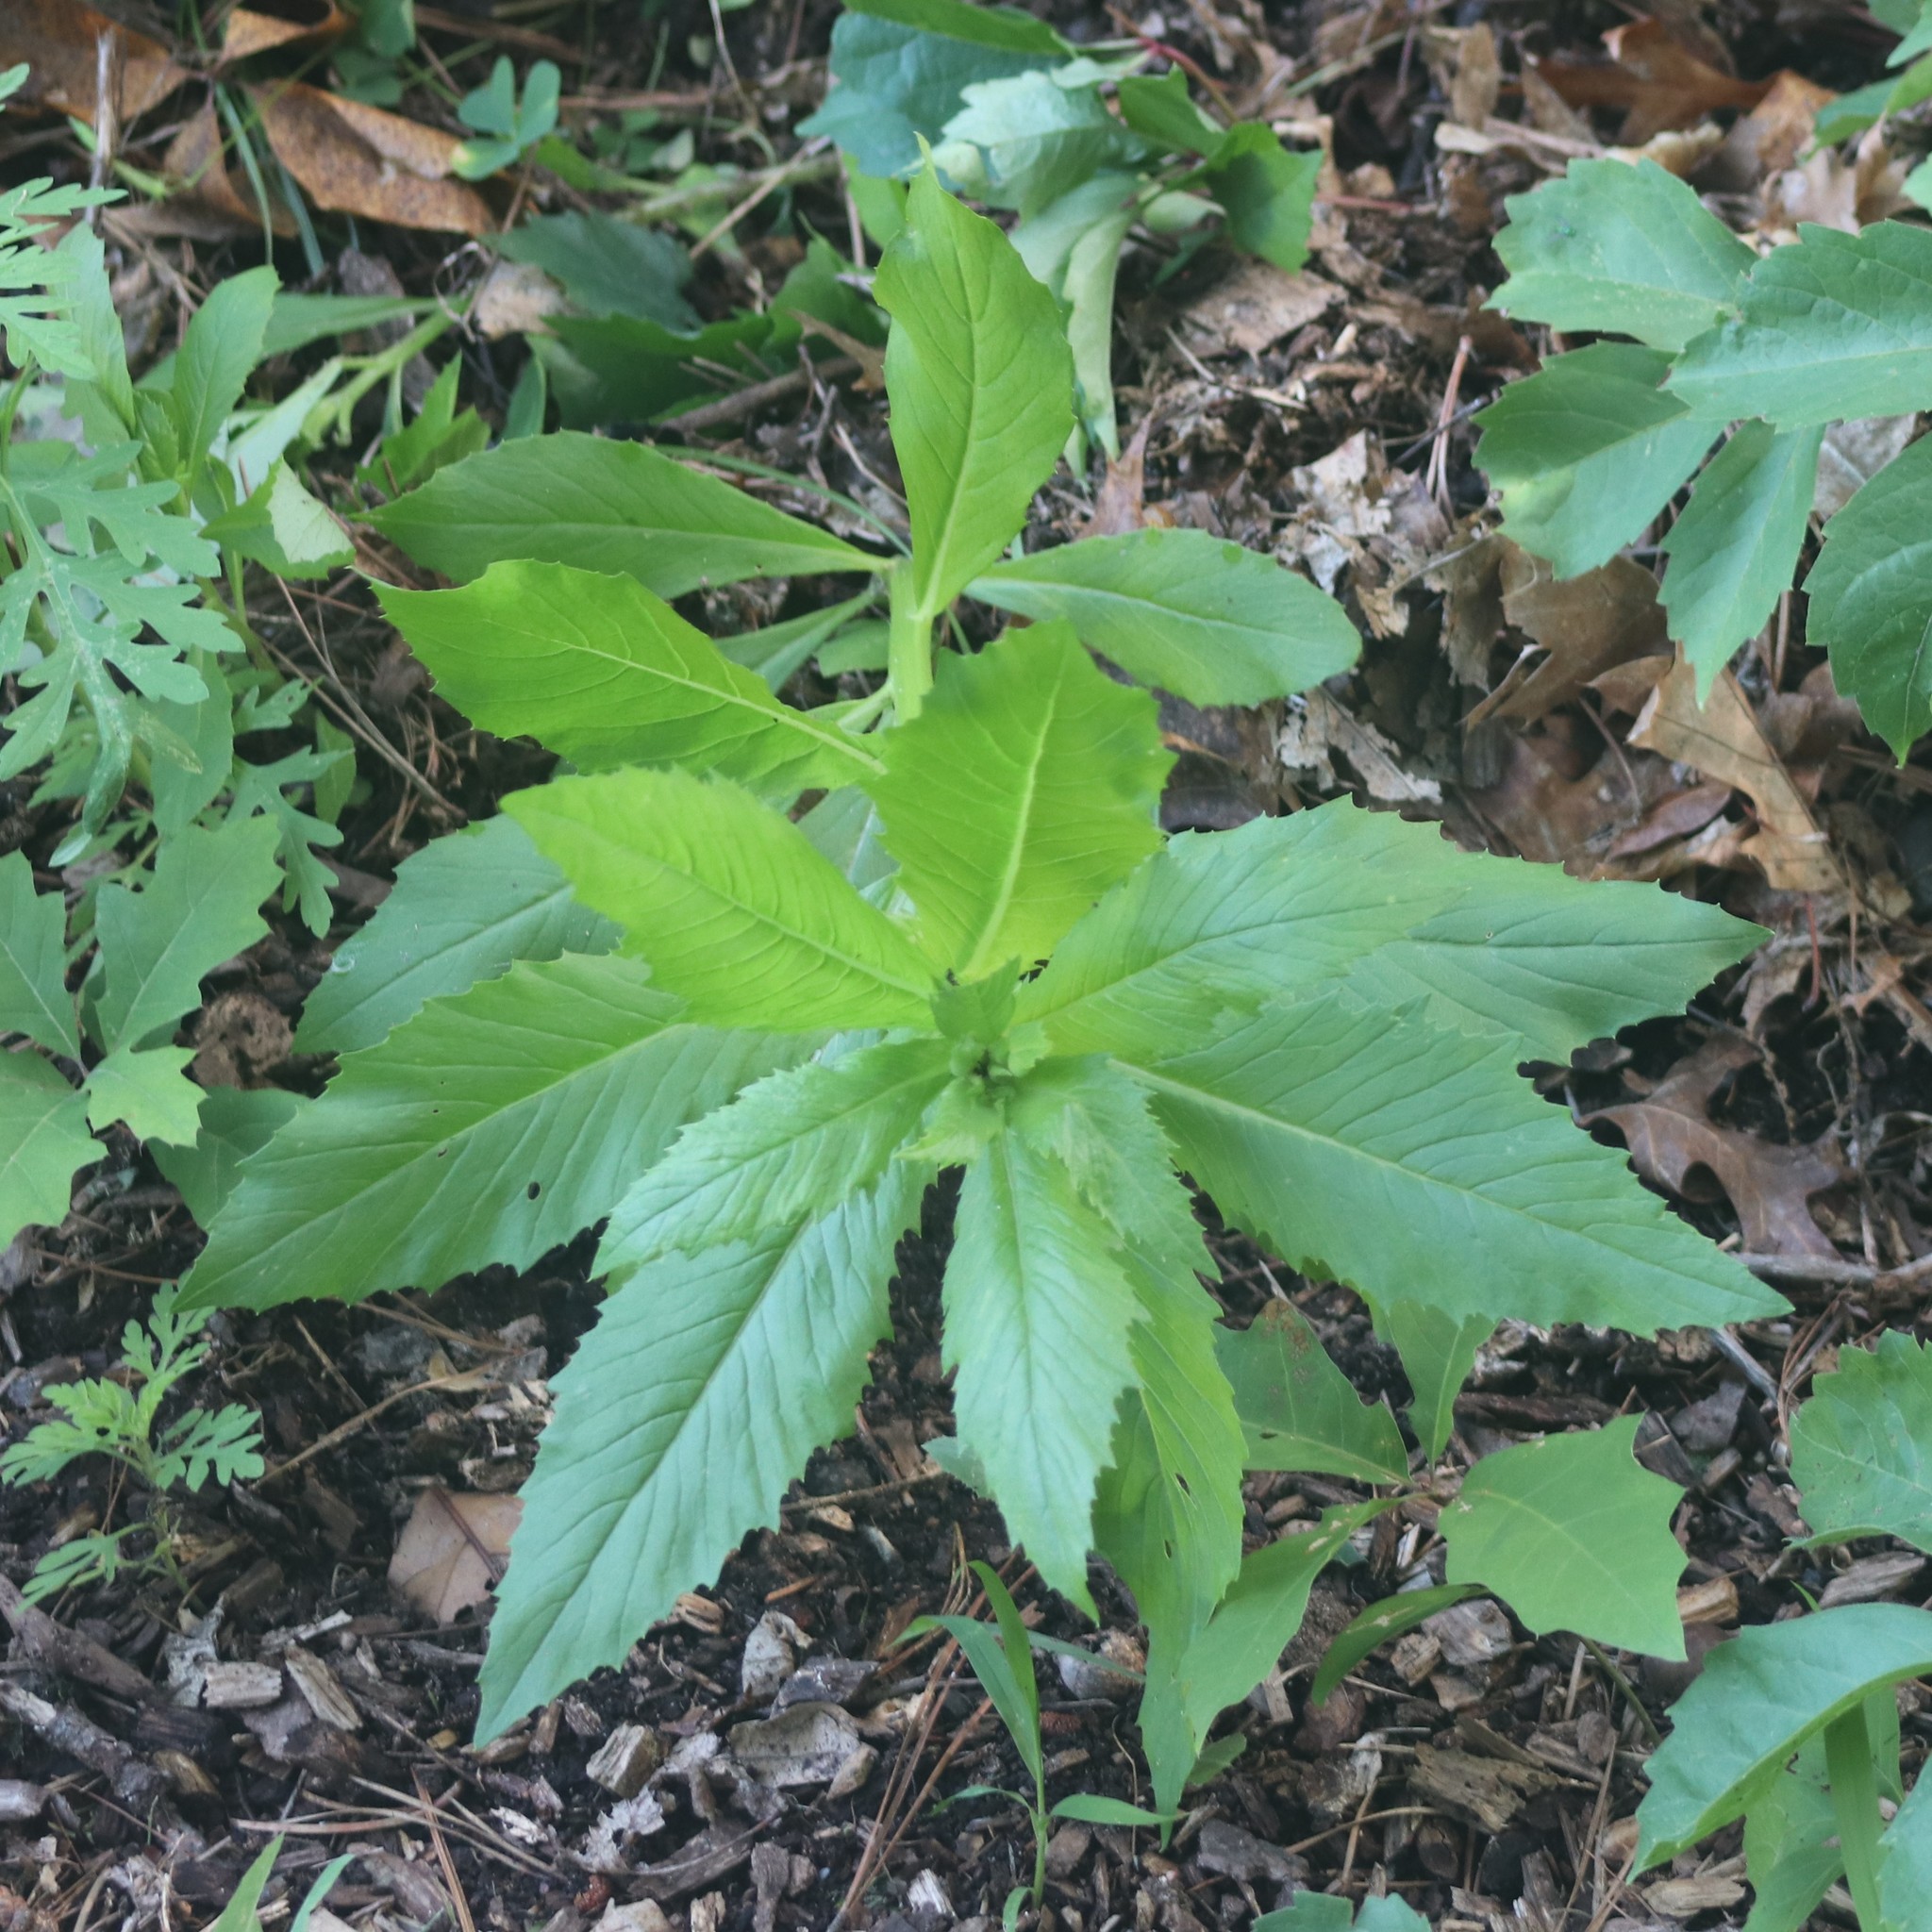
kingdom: Plantae
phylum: Tracheophyta
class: Magnoliopsida
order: Asterales
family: Asteraceae
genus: Erechtites
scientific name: Erechtites hieraciifolius
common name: American burnweed
